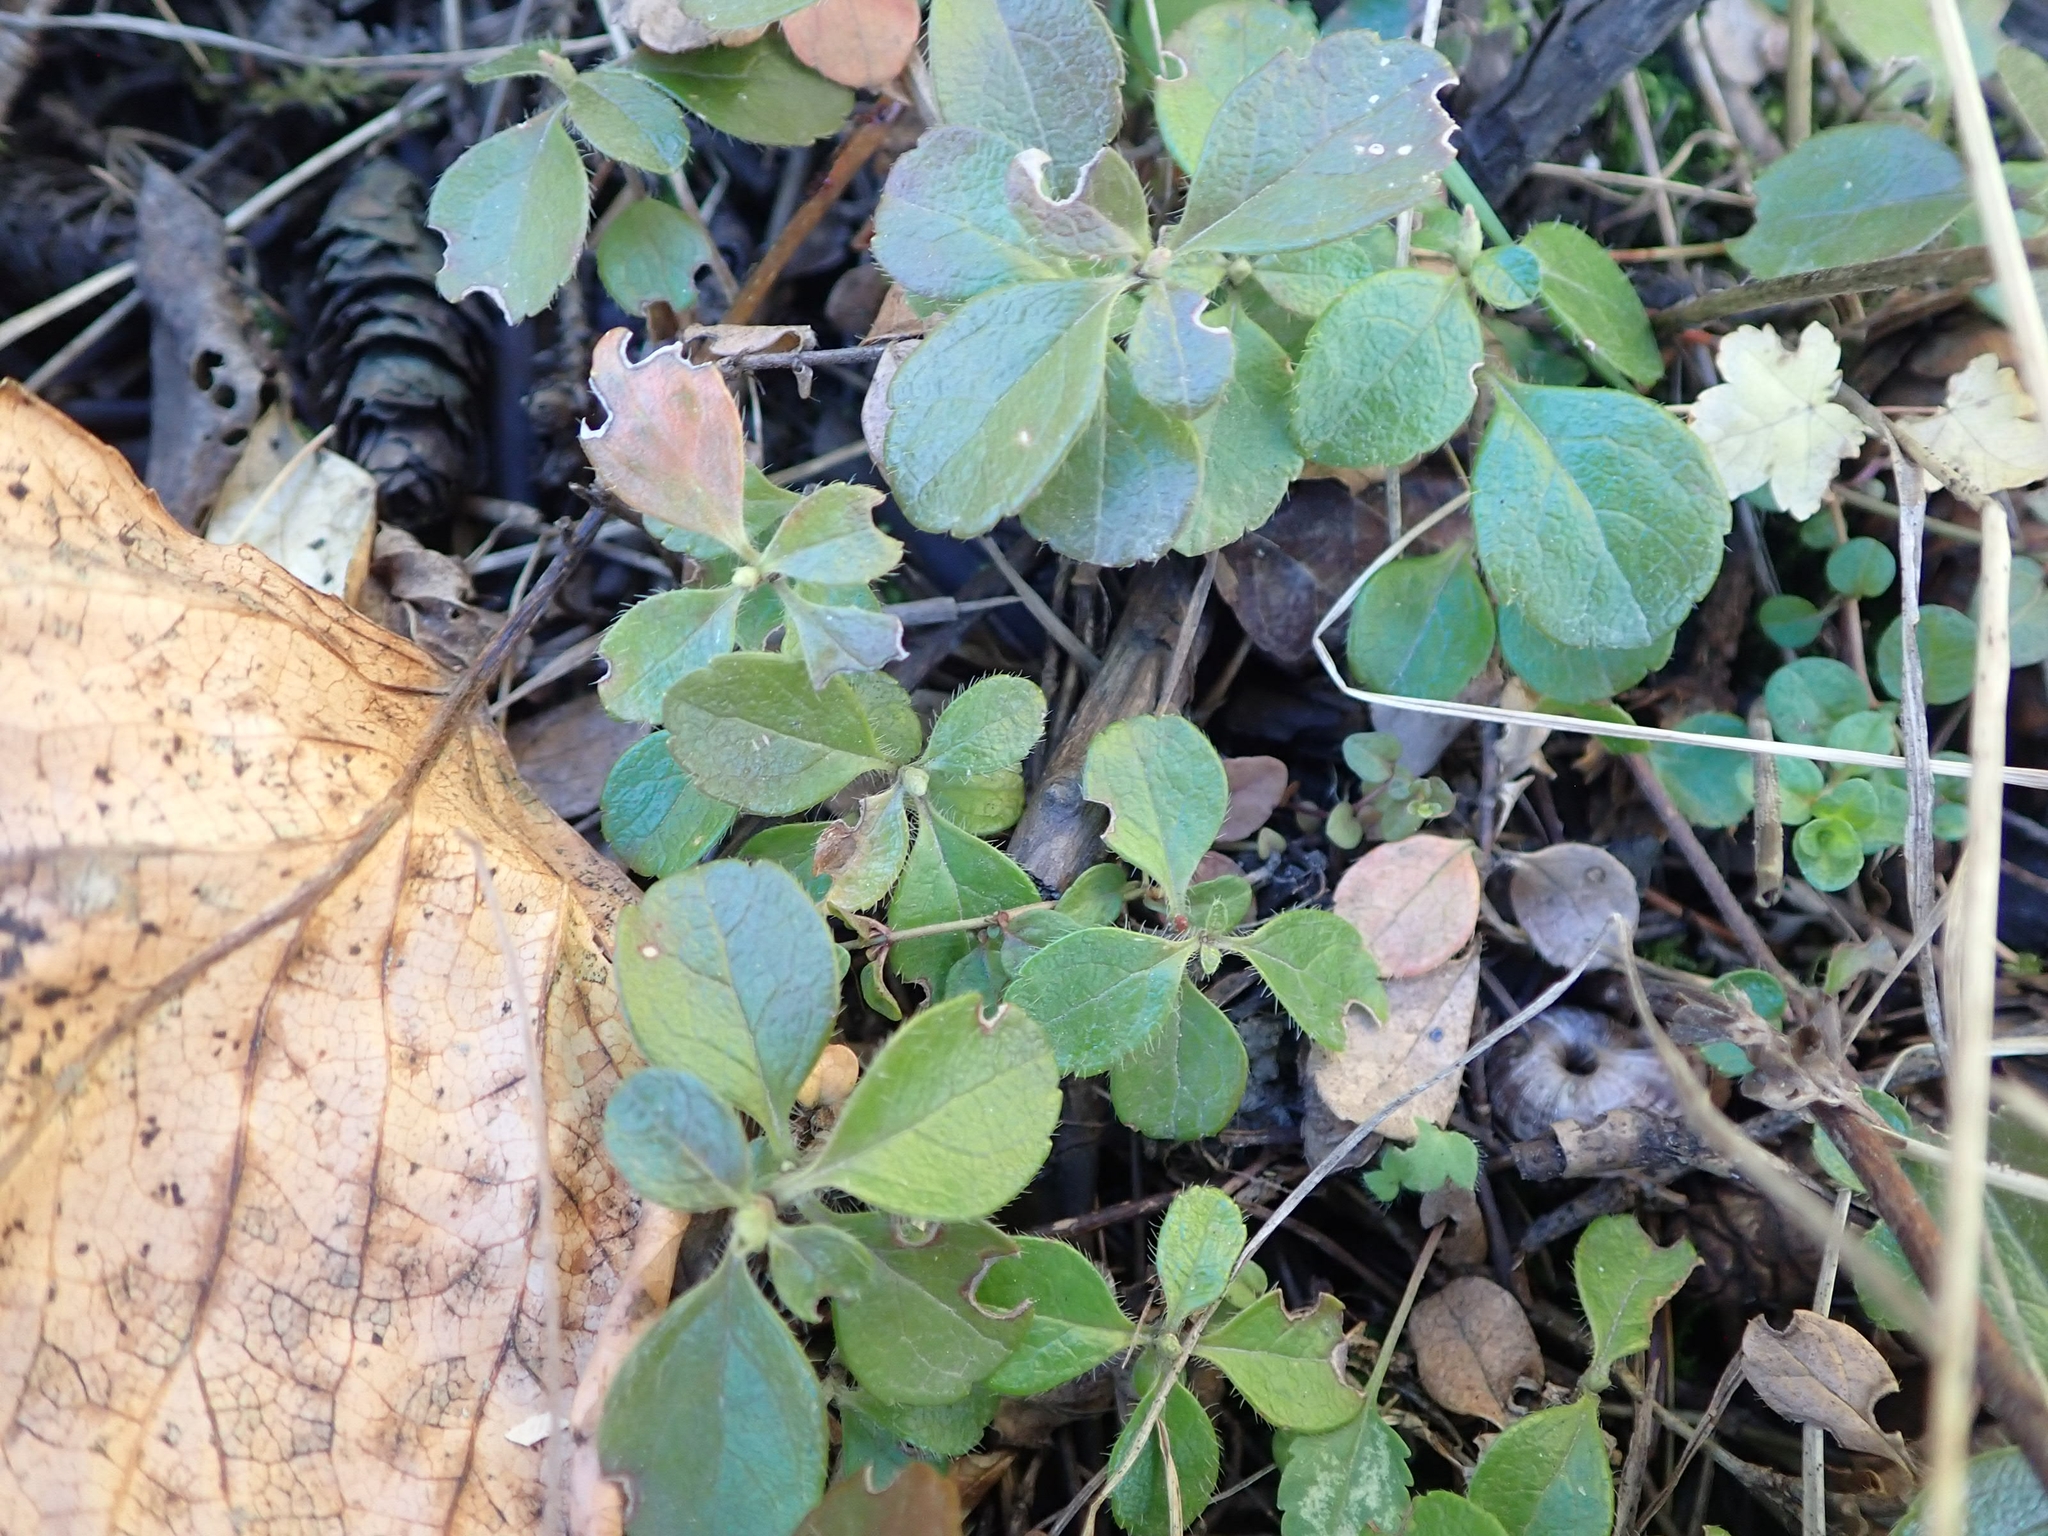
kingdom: Plantae
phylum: Tracheophyta
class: Magnoliopsida
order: Dipsacales
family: Caprifoliaceae
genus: Linnaea
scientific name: Linnaea borealis
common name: Twinflower
